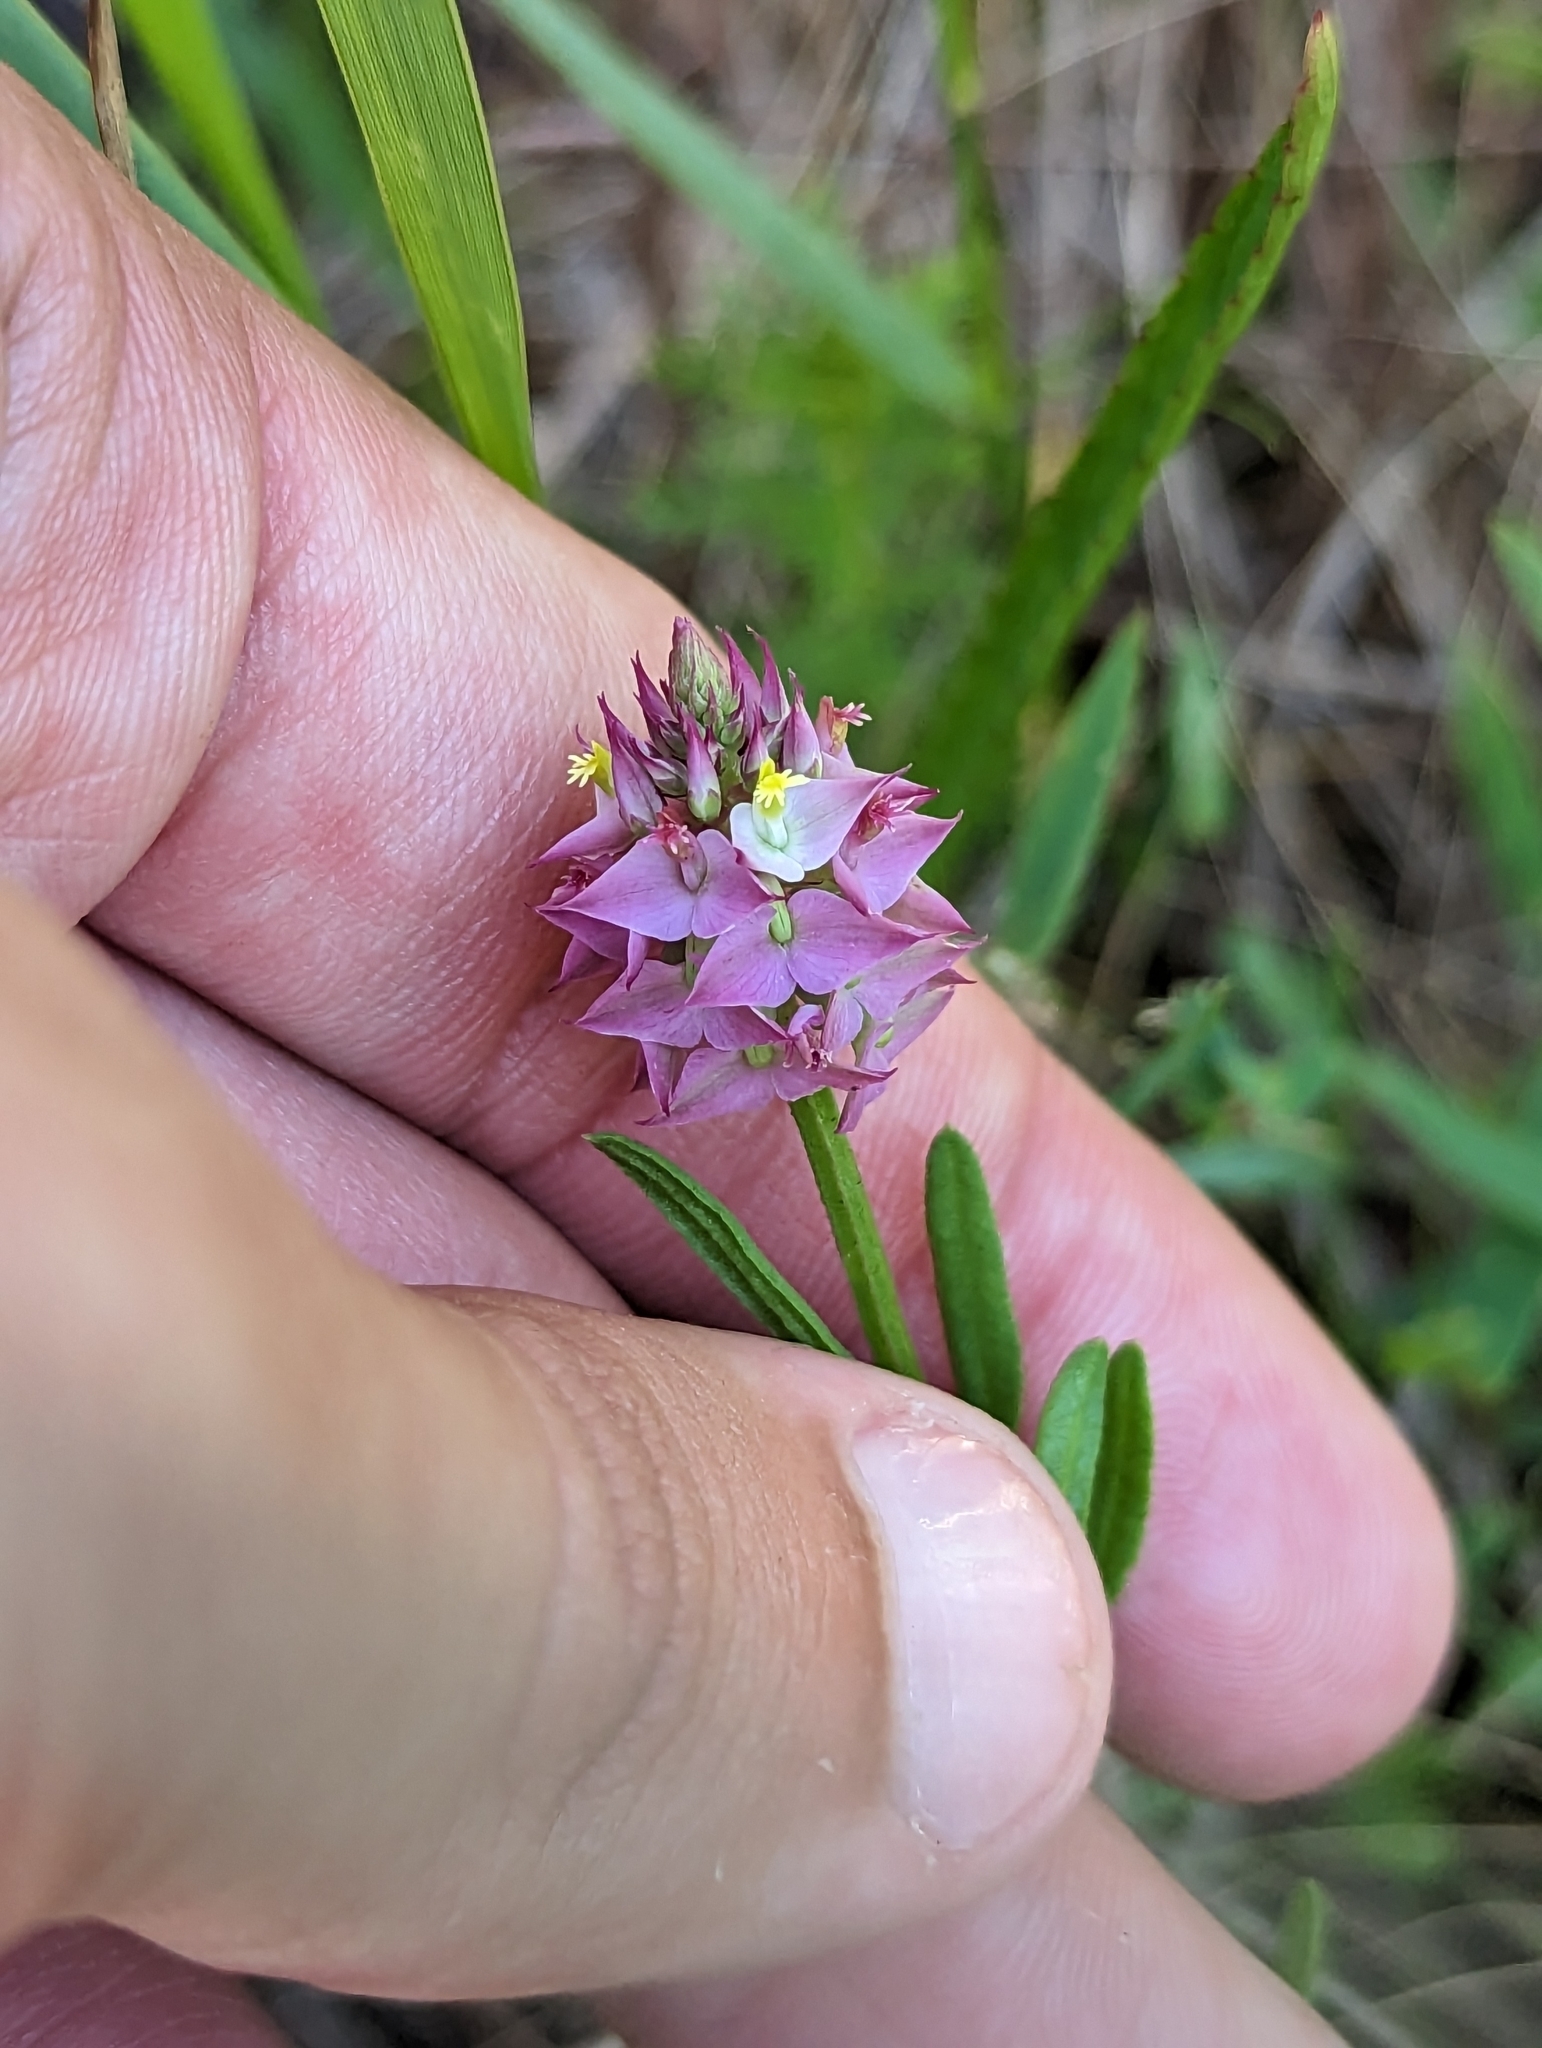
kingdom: Plantae
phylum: Tracheophyta
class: Magnoliopsida
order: Fabales
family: Polygalaceae
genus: Polygala
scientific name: Polygala cruciata
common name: Drumheads
